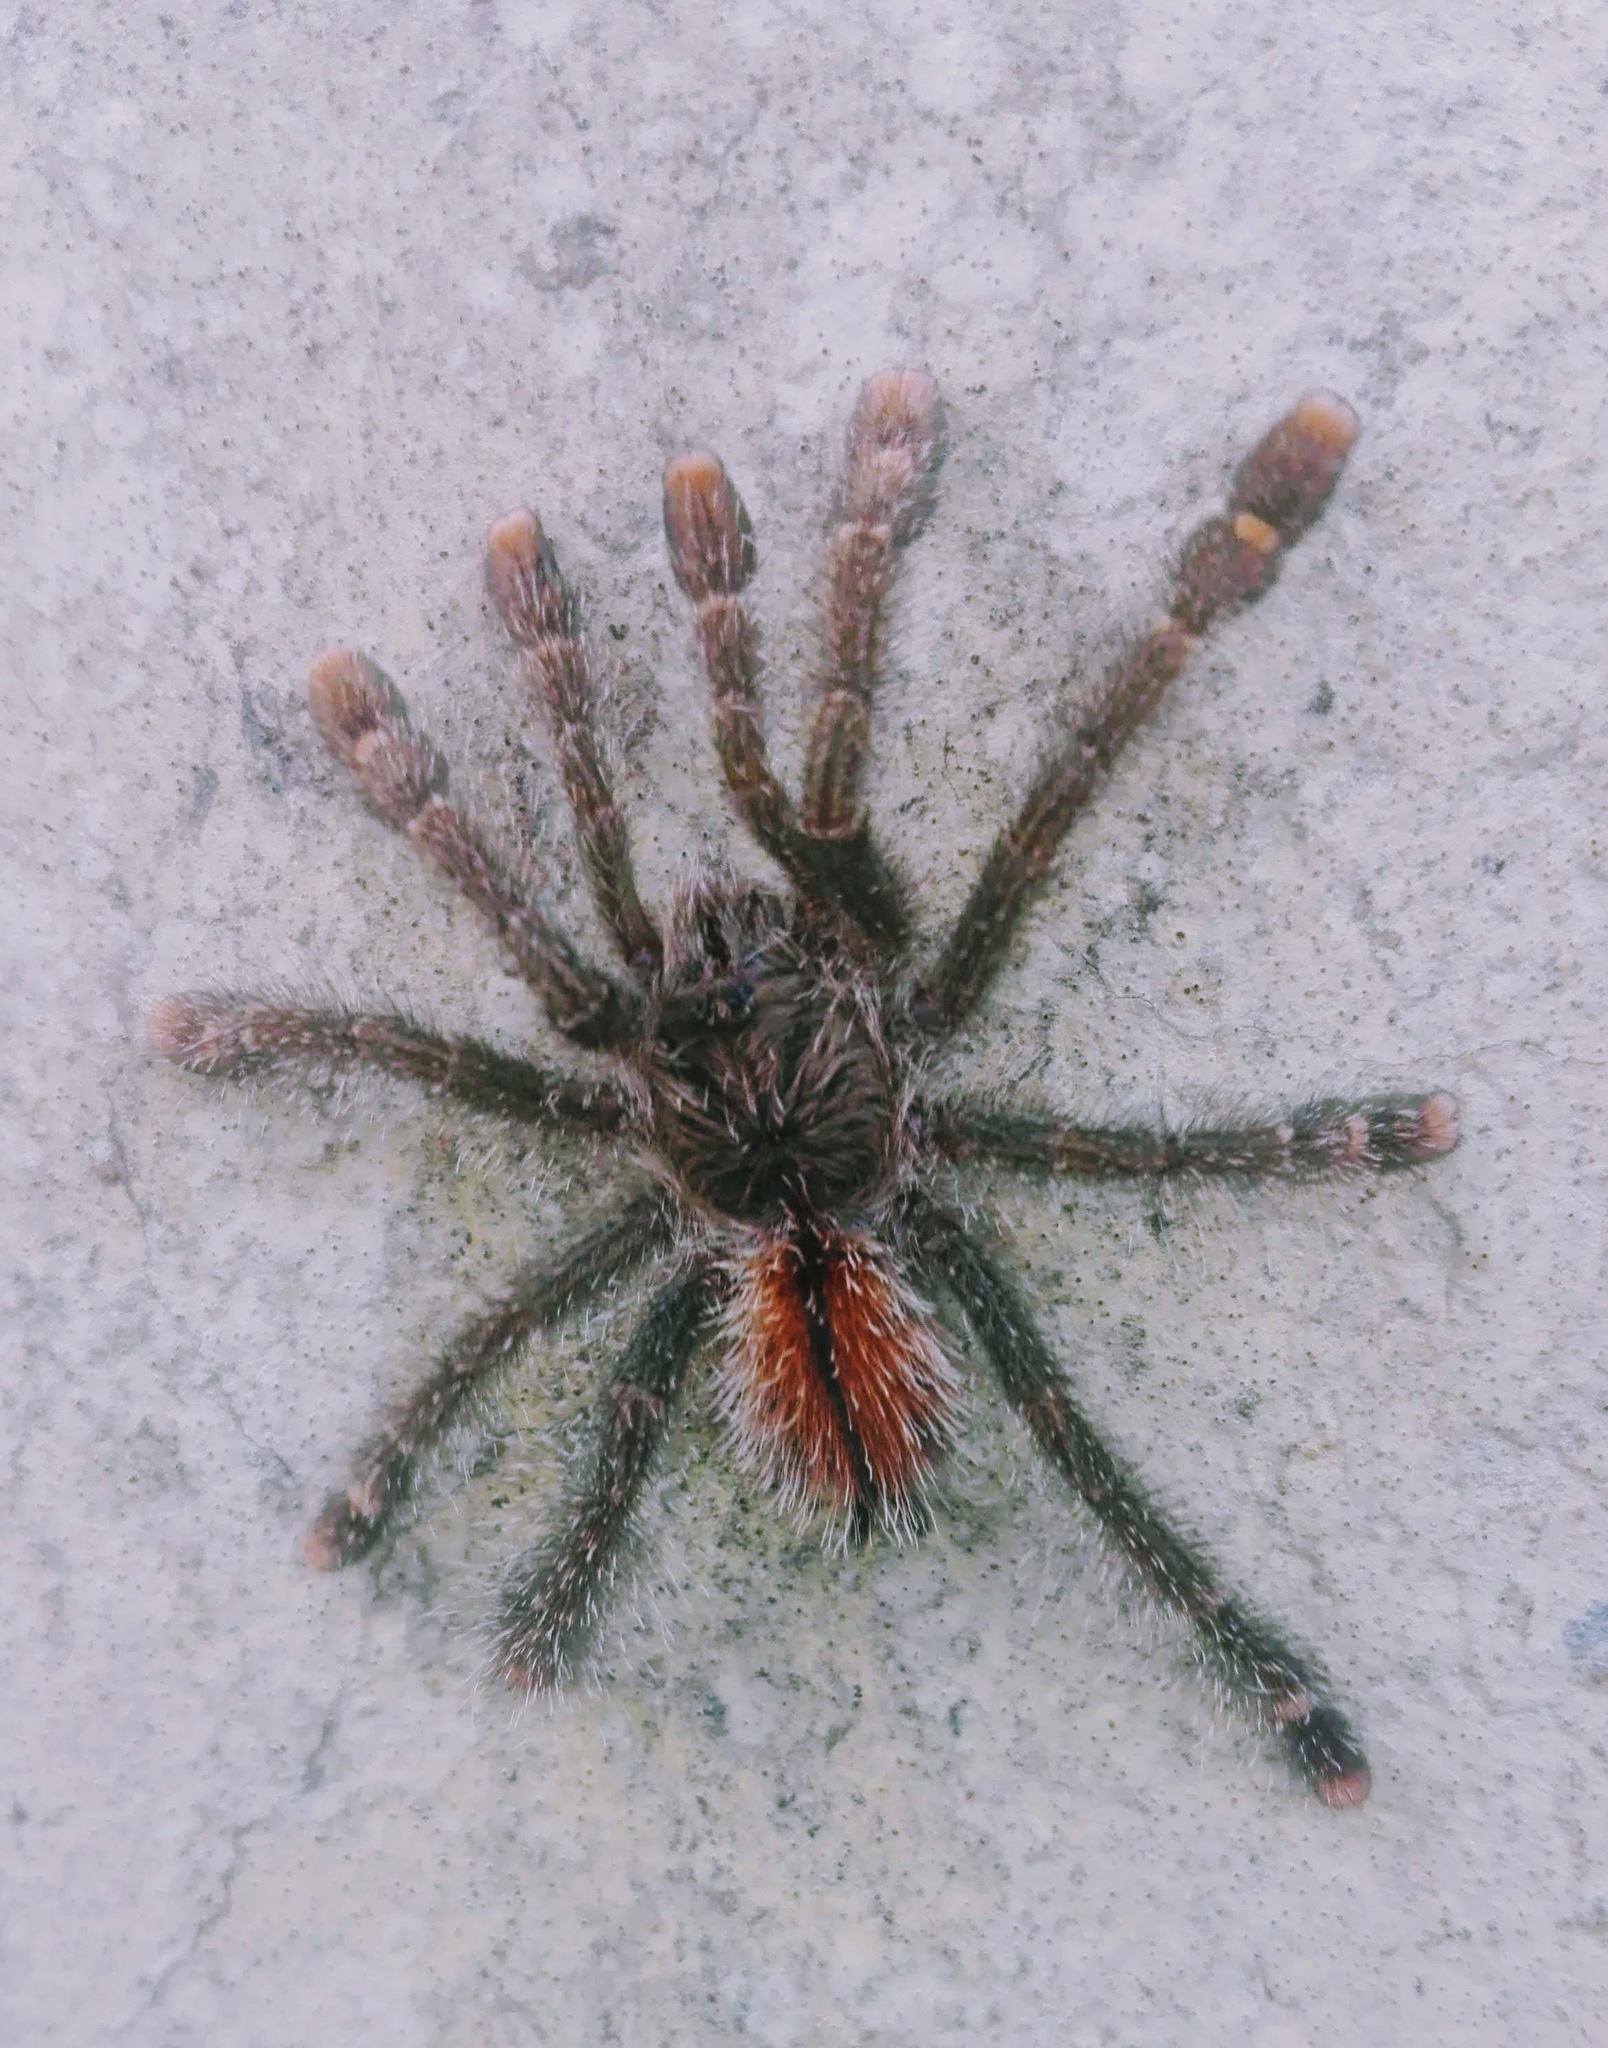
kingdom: Animalia
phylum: Arthropoda
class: Arachnida
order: Araneae
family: Theraphosidae
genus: Avicularia
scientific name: Avicularia hirschii
